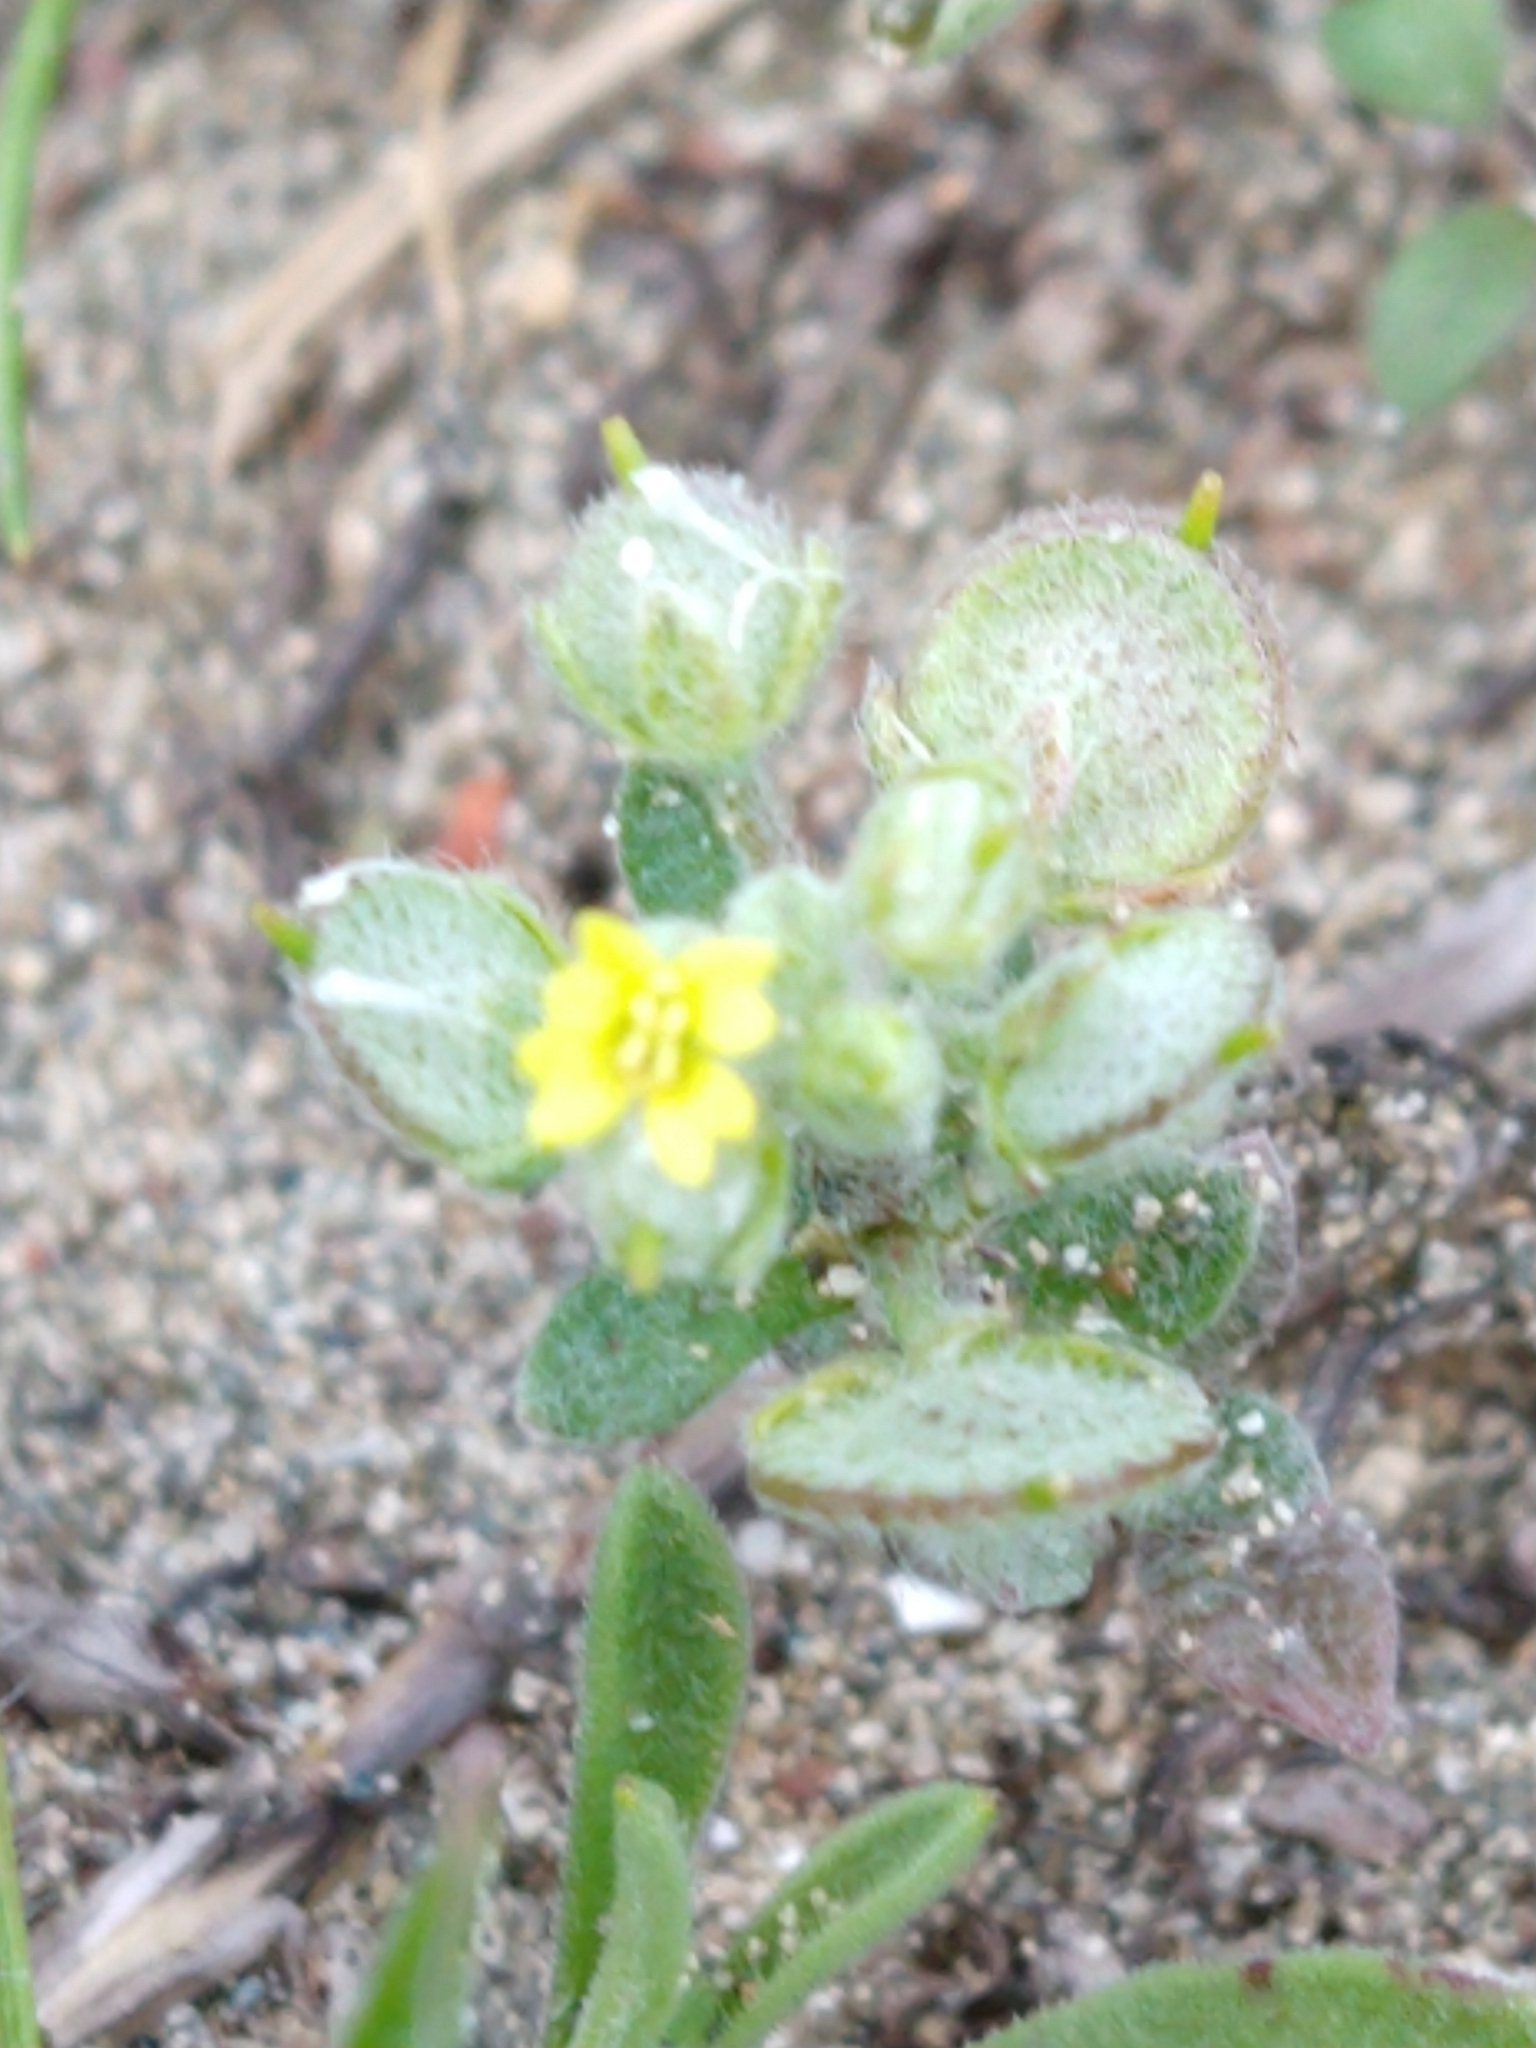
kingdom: Plantae
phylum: Tracheophyta
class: Magnoliopsida
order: Brassicales
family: Brassicaceae
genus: Alyssum
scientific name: Alyssum strigosum
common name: Alyssum
